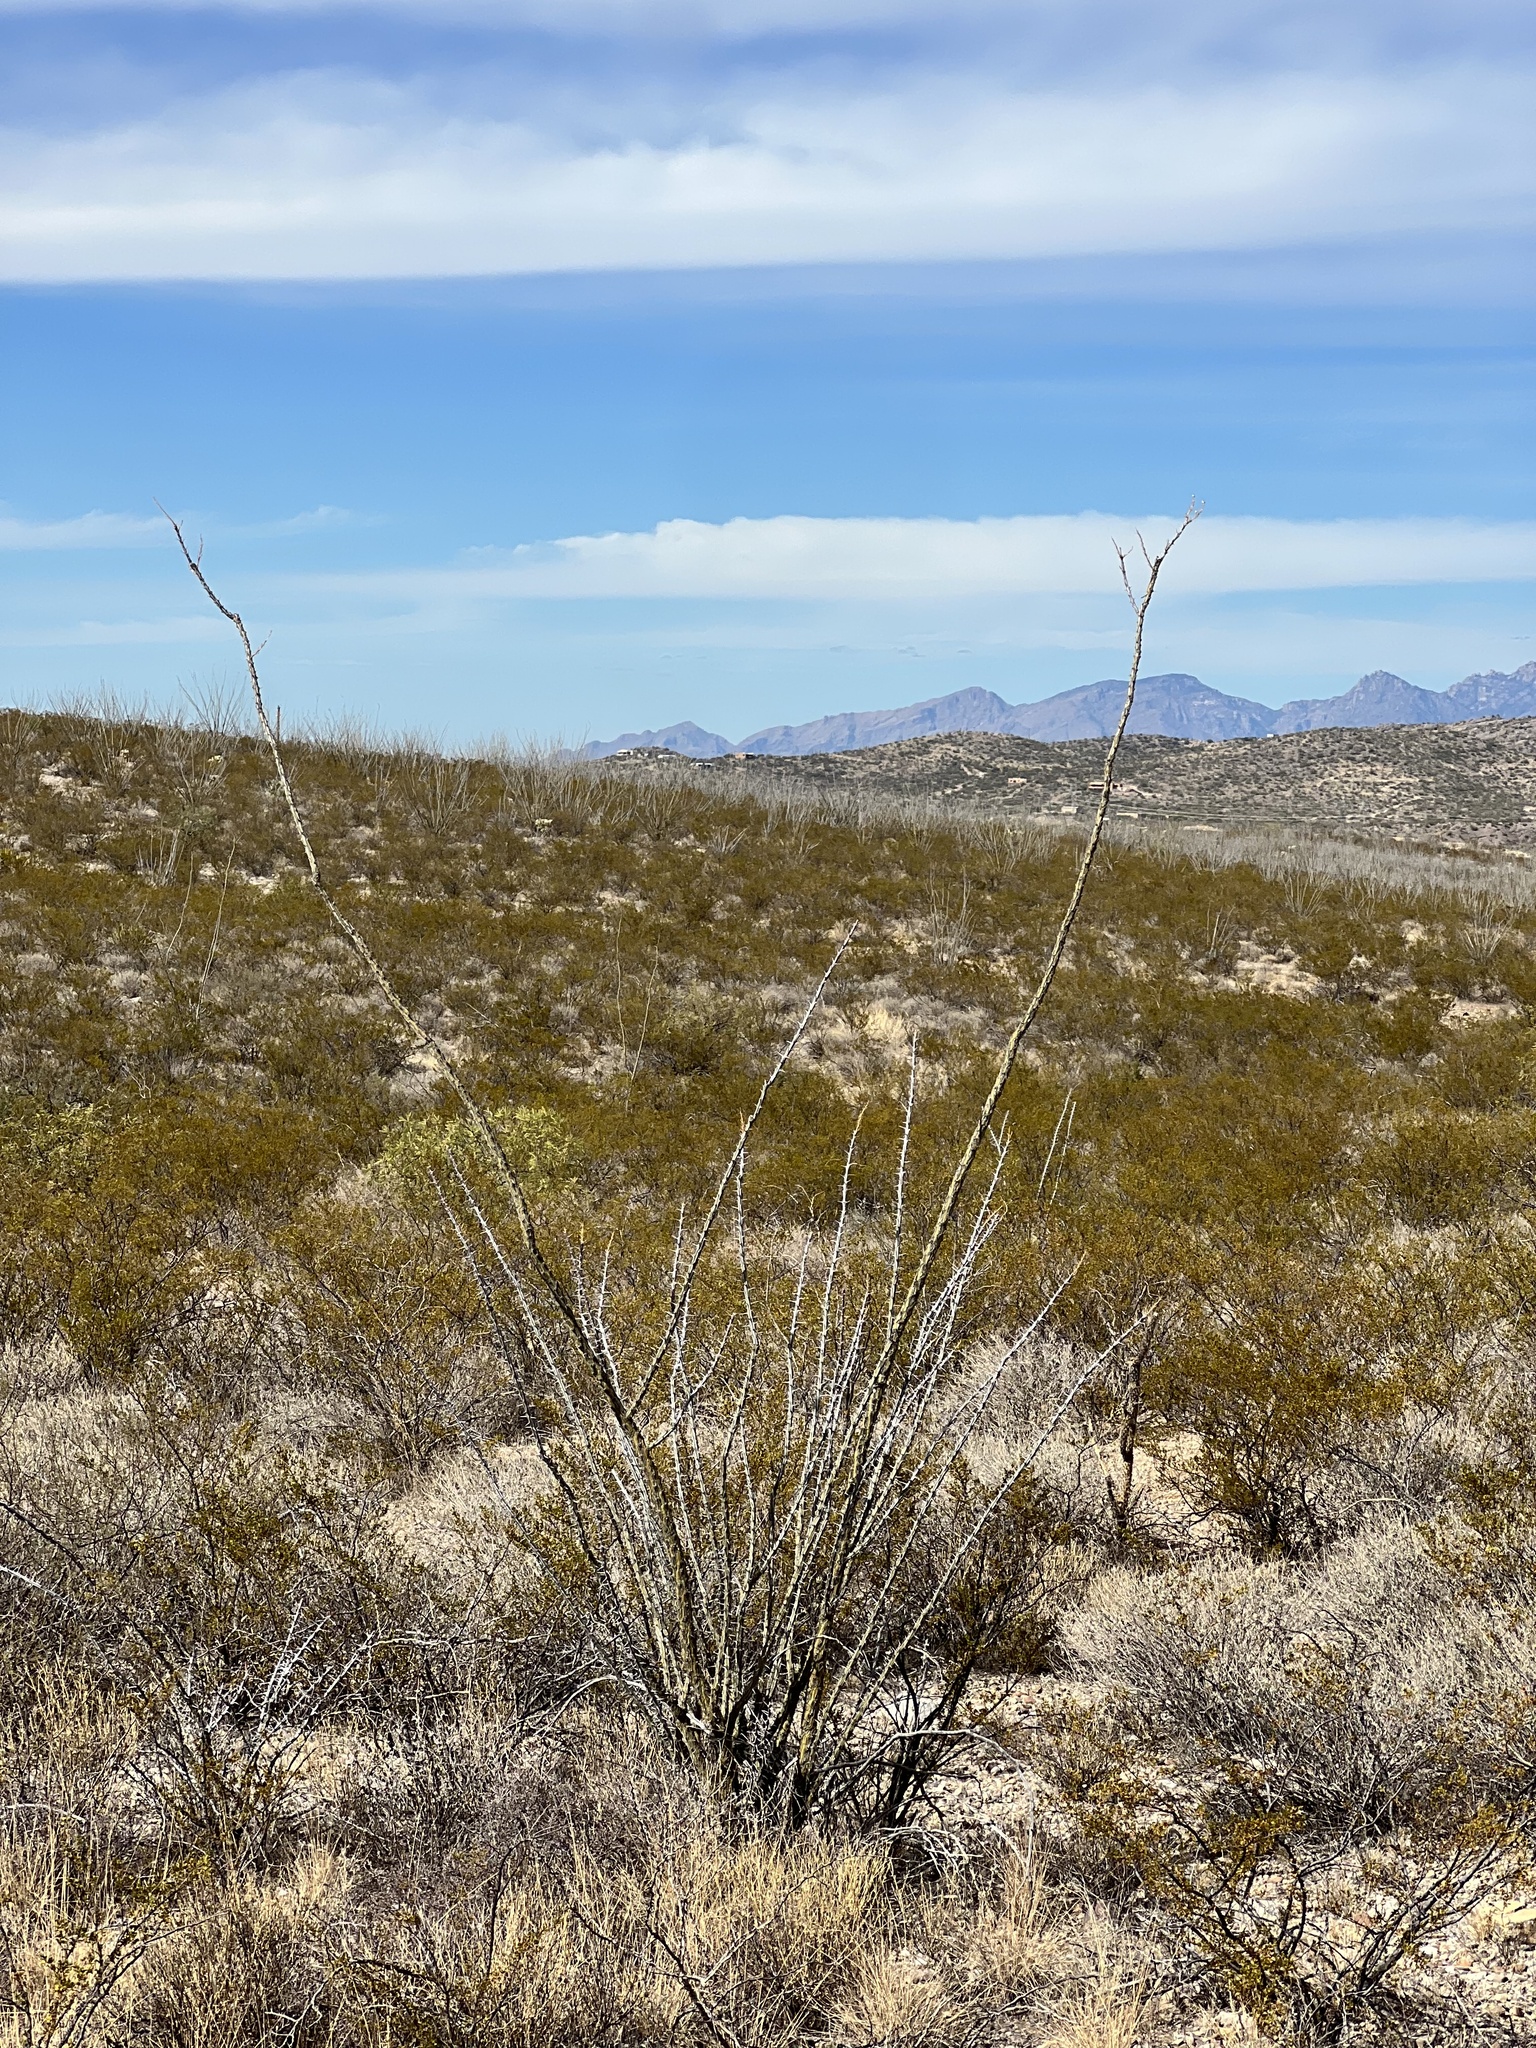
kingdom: Plantae
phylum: Tracheophyta
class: Magnoliopsida
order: Ericales
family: Fouquieriaceae
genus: Fouquieria
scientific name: Fouquieria splendens
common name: Vine-cactus
